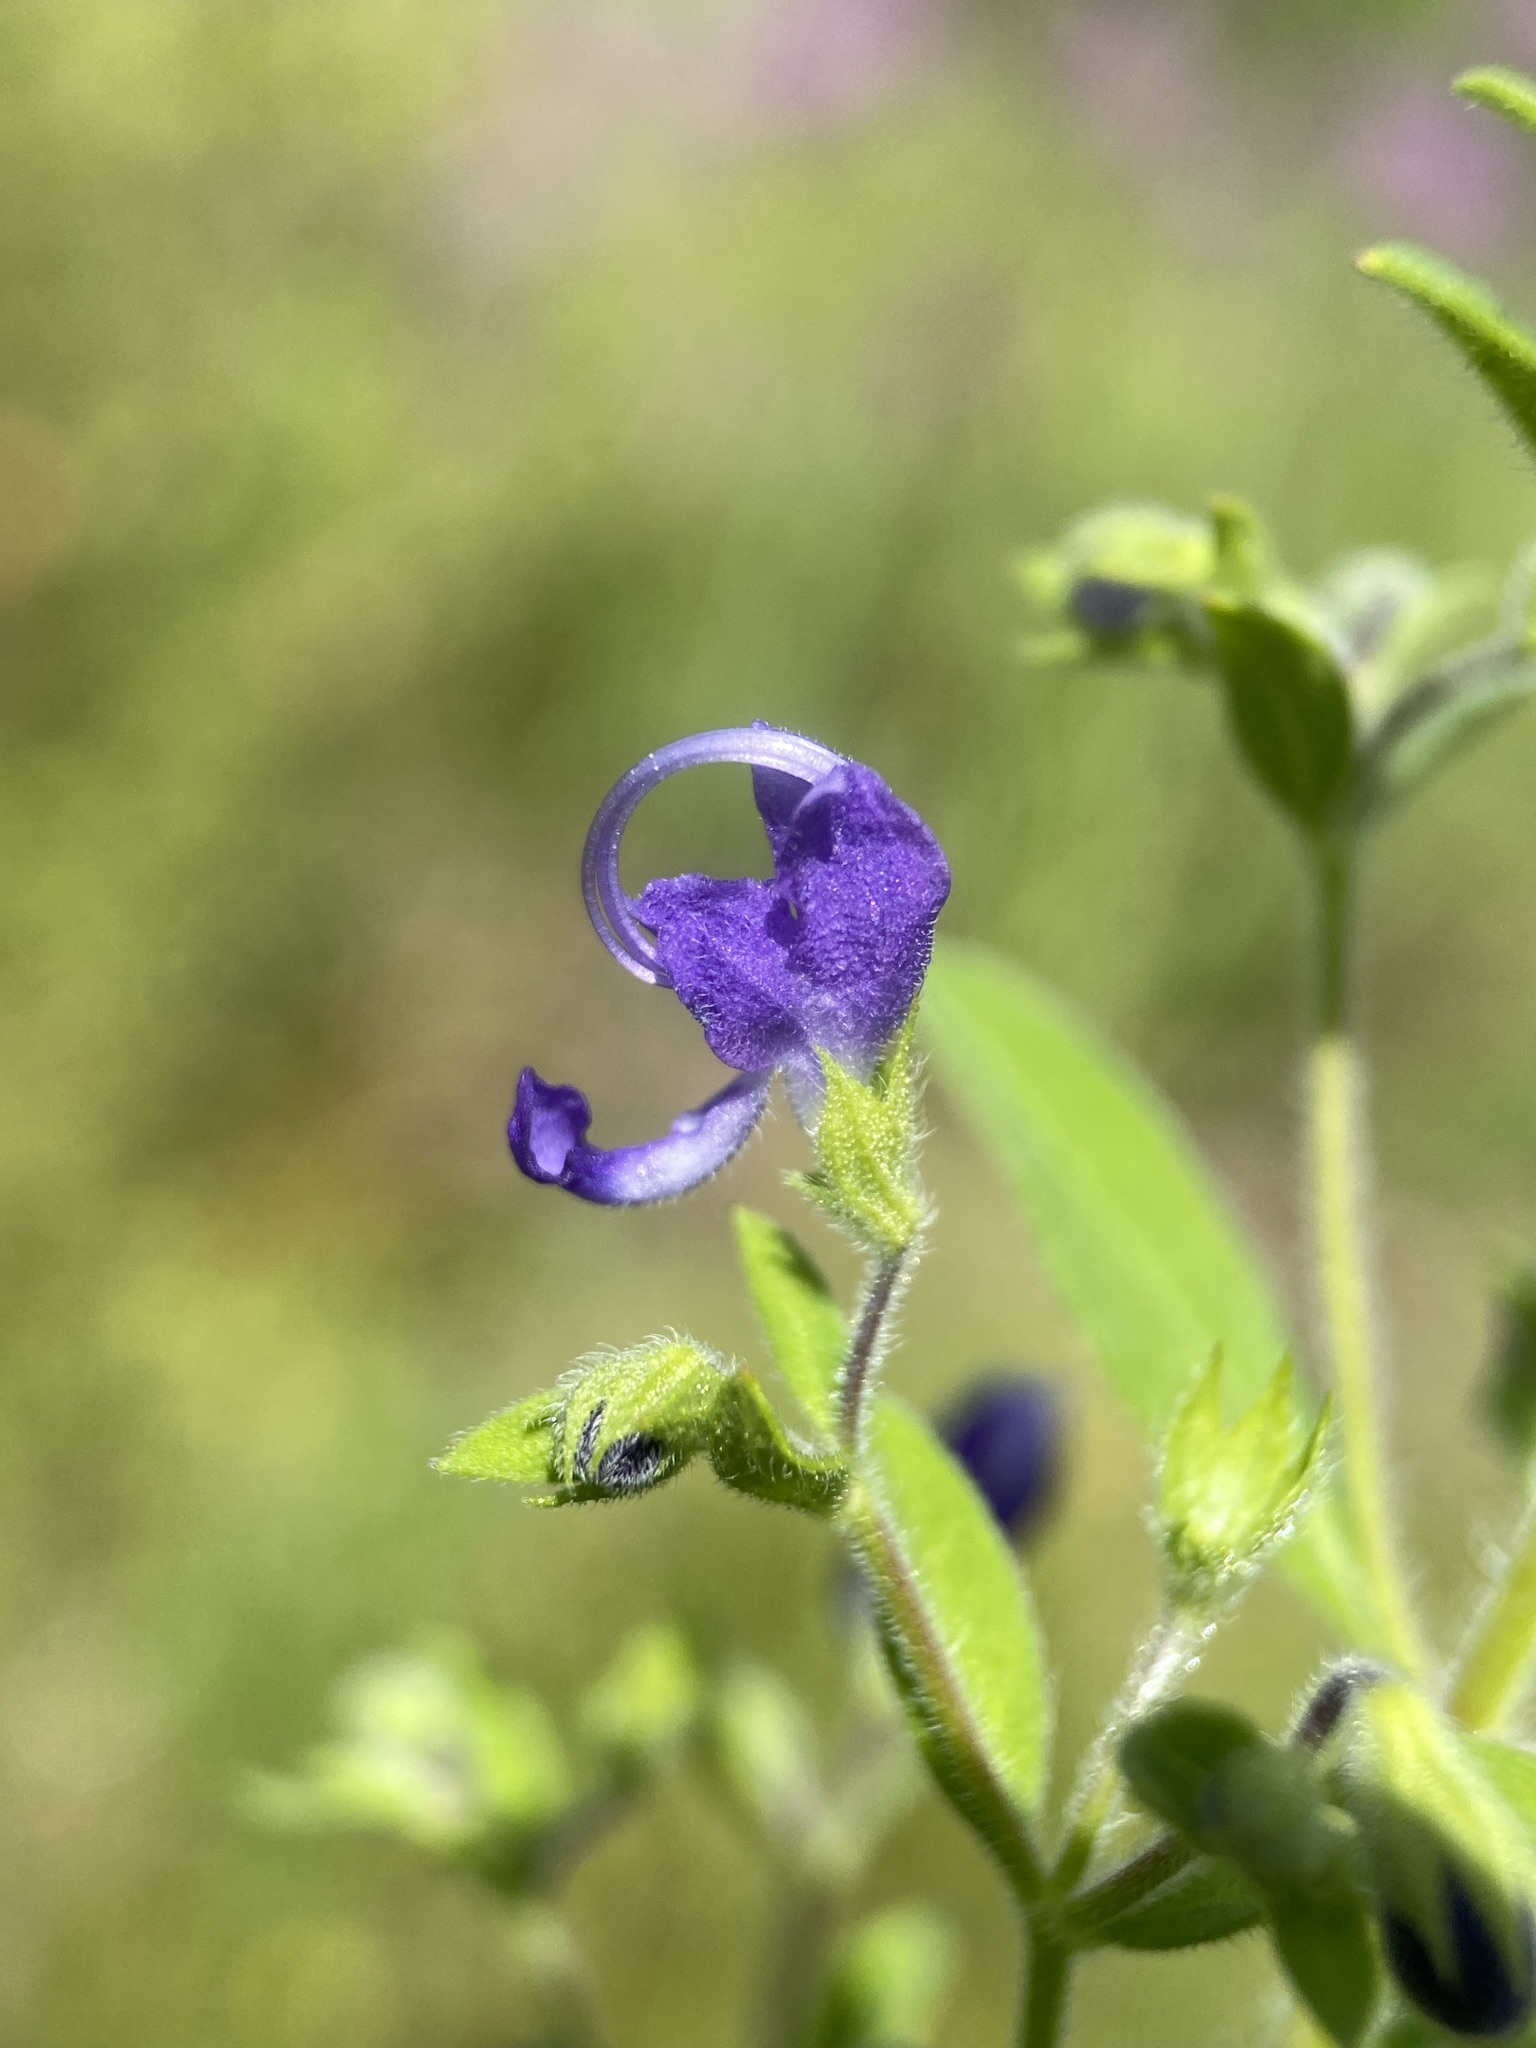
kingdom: Plantae
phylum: Tracheophyta
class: Magnoliopsida
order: Lamiales
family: Lamiaceae
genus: Trichostema
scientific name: Trichostema dichotomum
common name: Bastard pennyroyal
